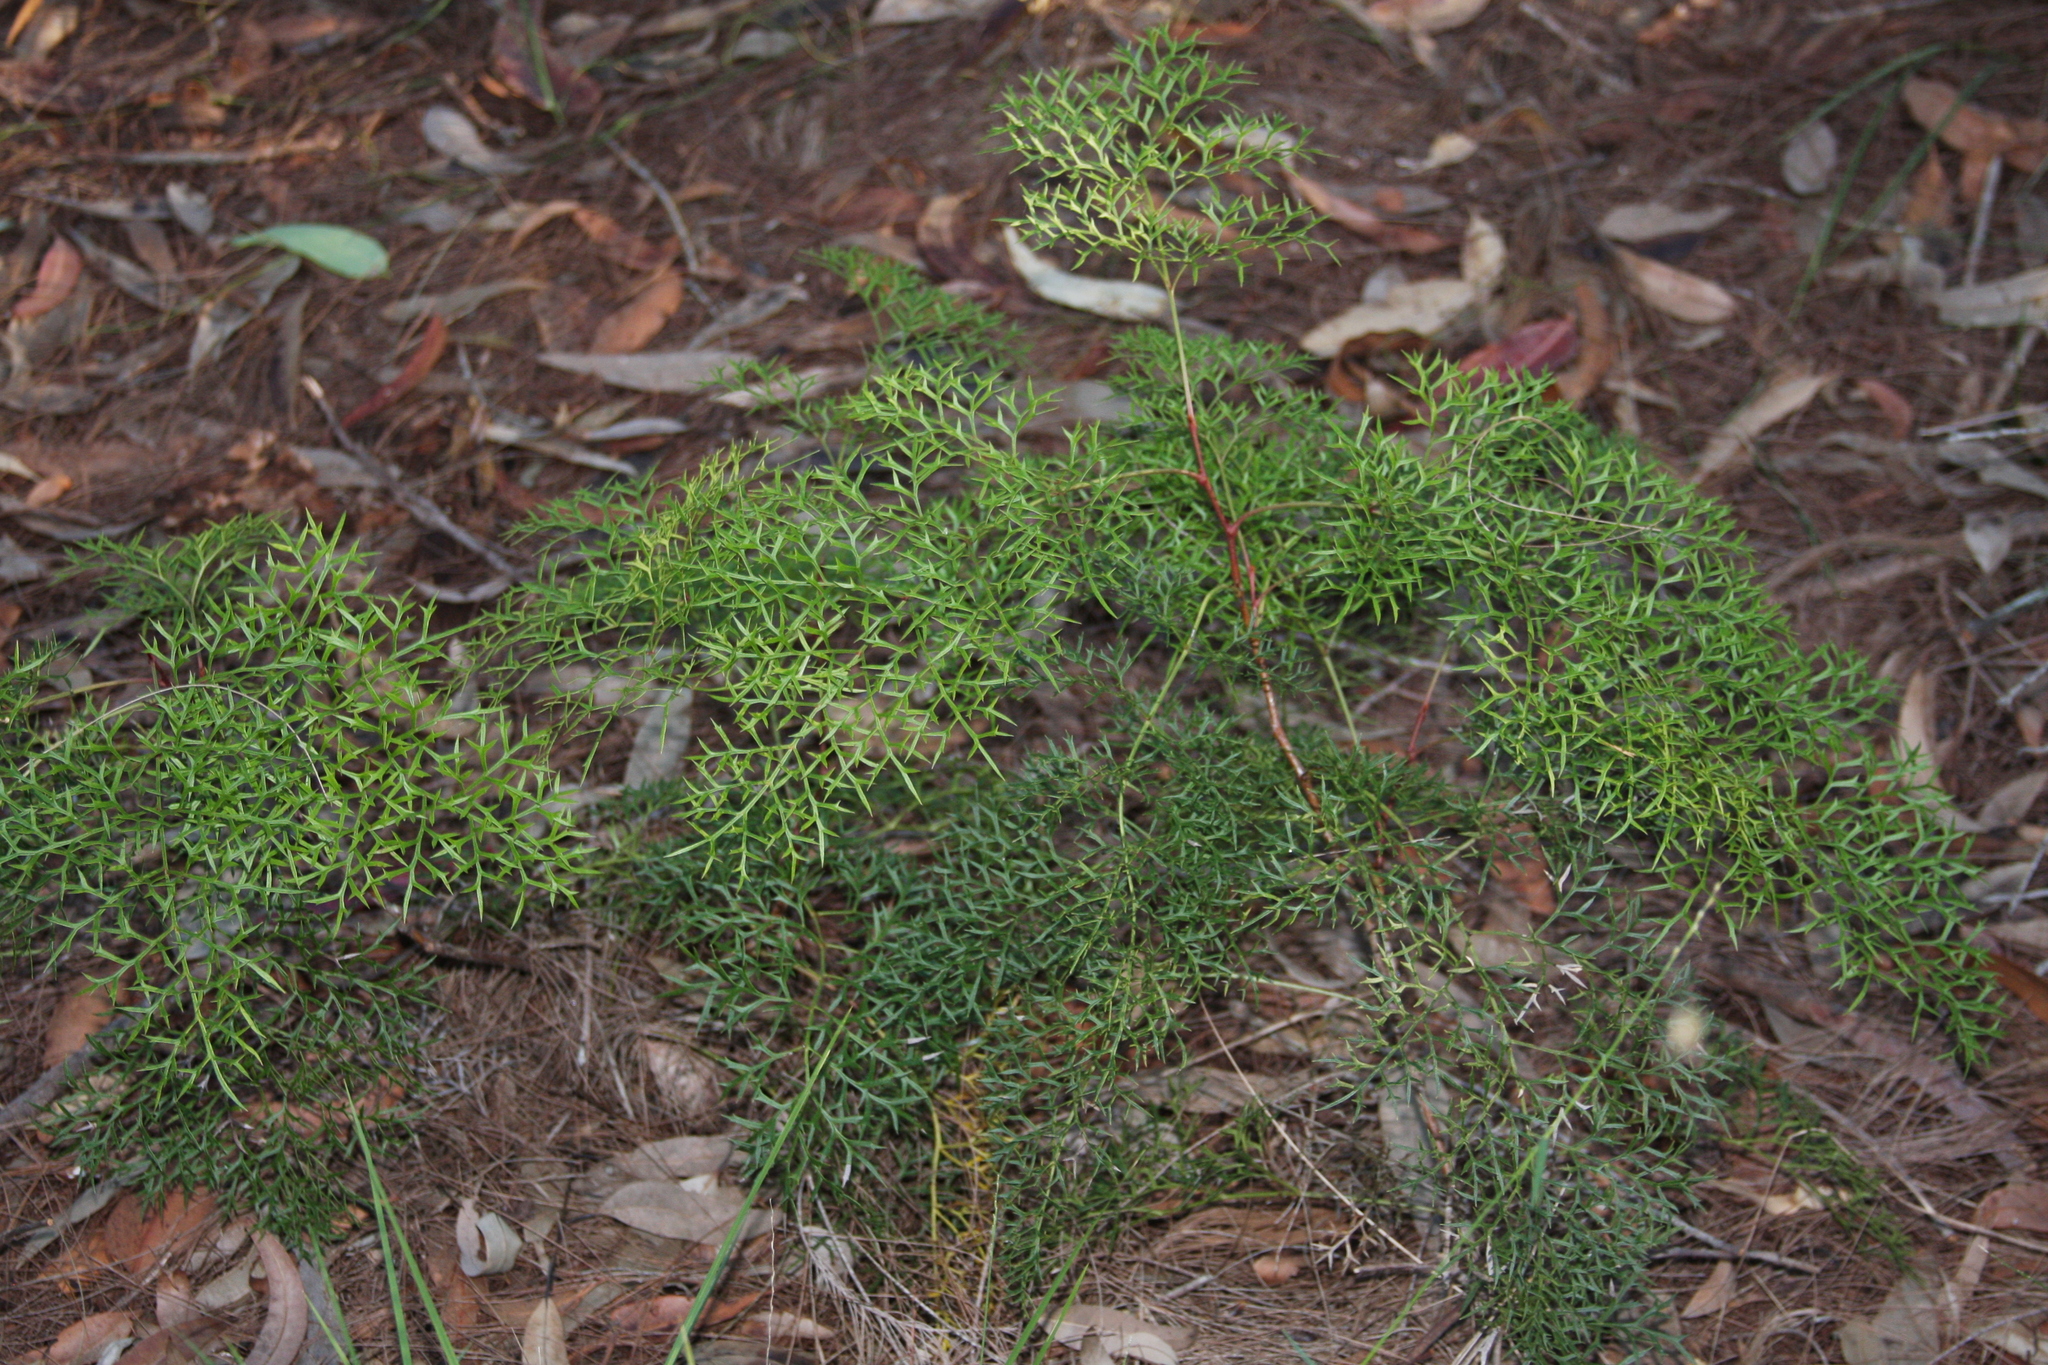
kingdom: Plantae
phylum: Tracheophyta
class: Magnoliopsida
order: Proteales
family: Proteaceae
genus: Lomatia
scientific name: Lomatia silaifolia
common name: Crinklebush
